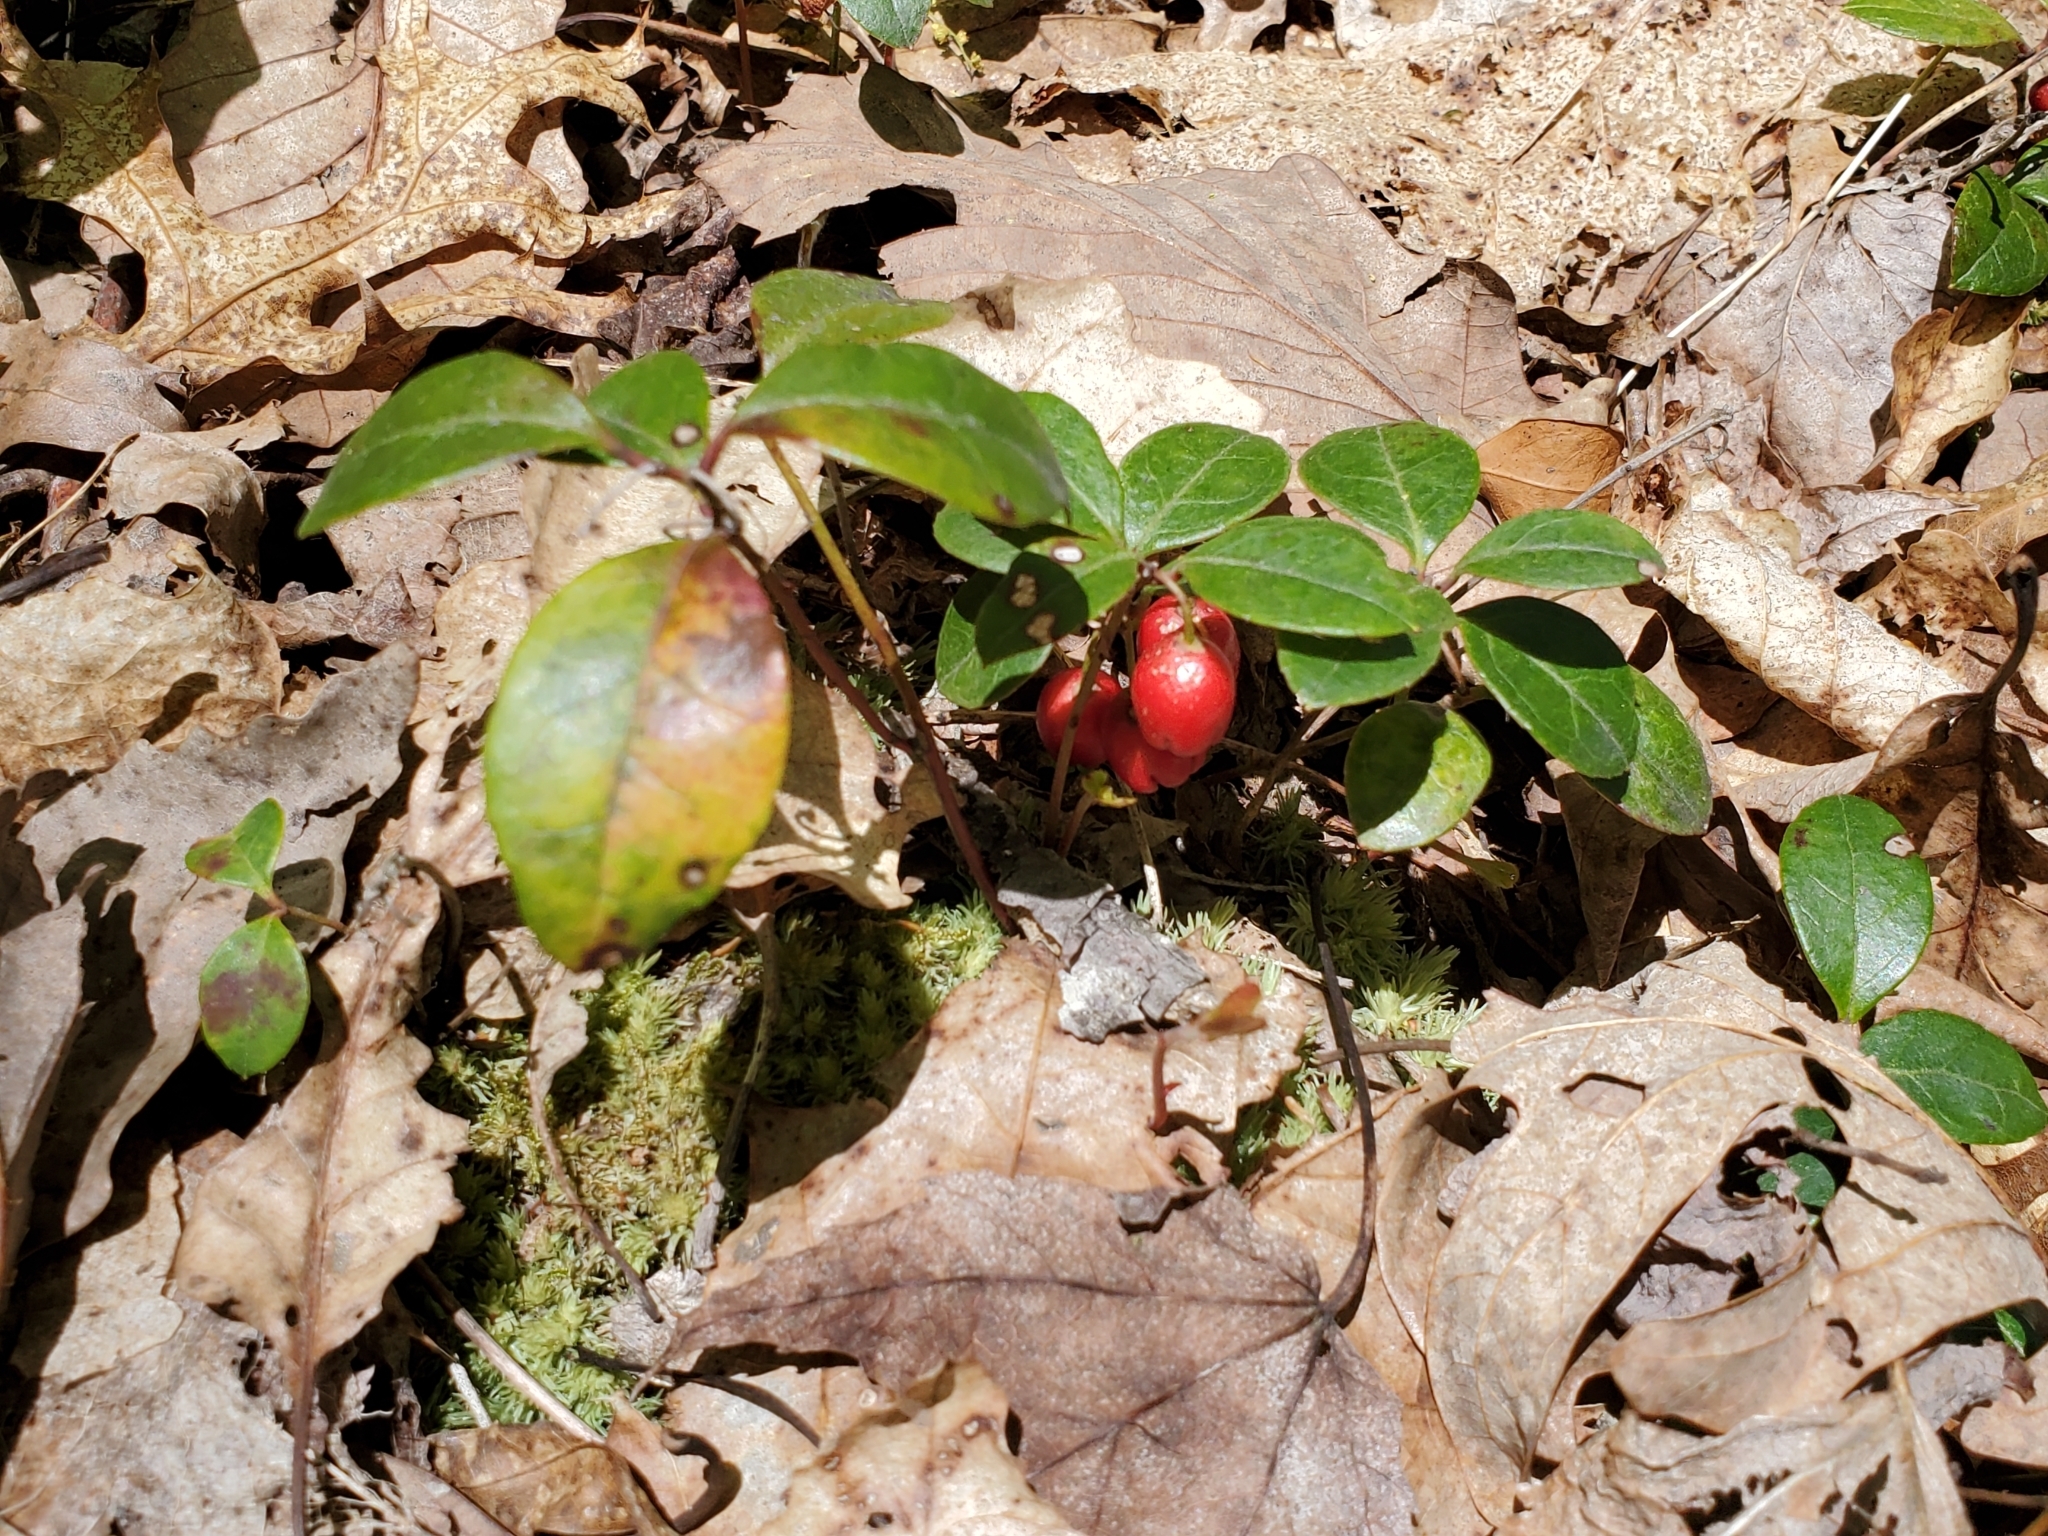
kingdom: Plantae
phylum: Tracheophyta
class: Magnoliopsida
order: Ericales
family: Ericaceae
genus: Gaultheria
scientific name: Gaultheria procumbens
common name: Checkerberry
